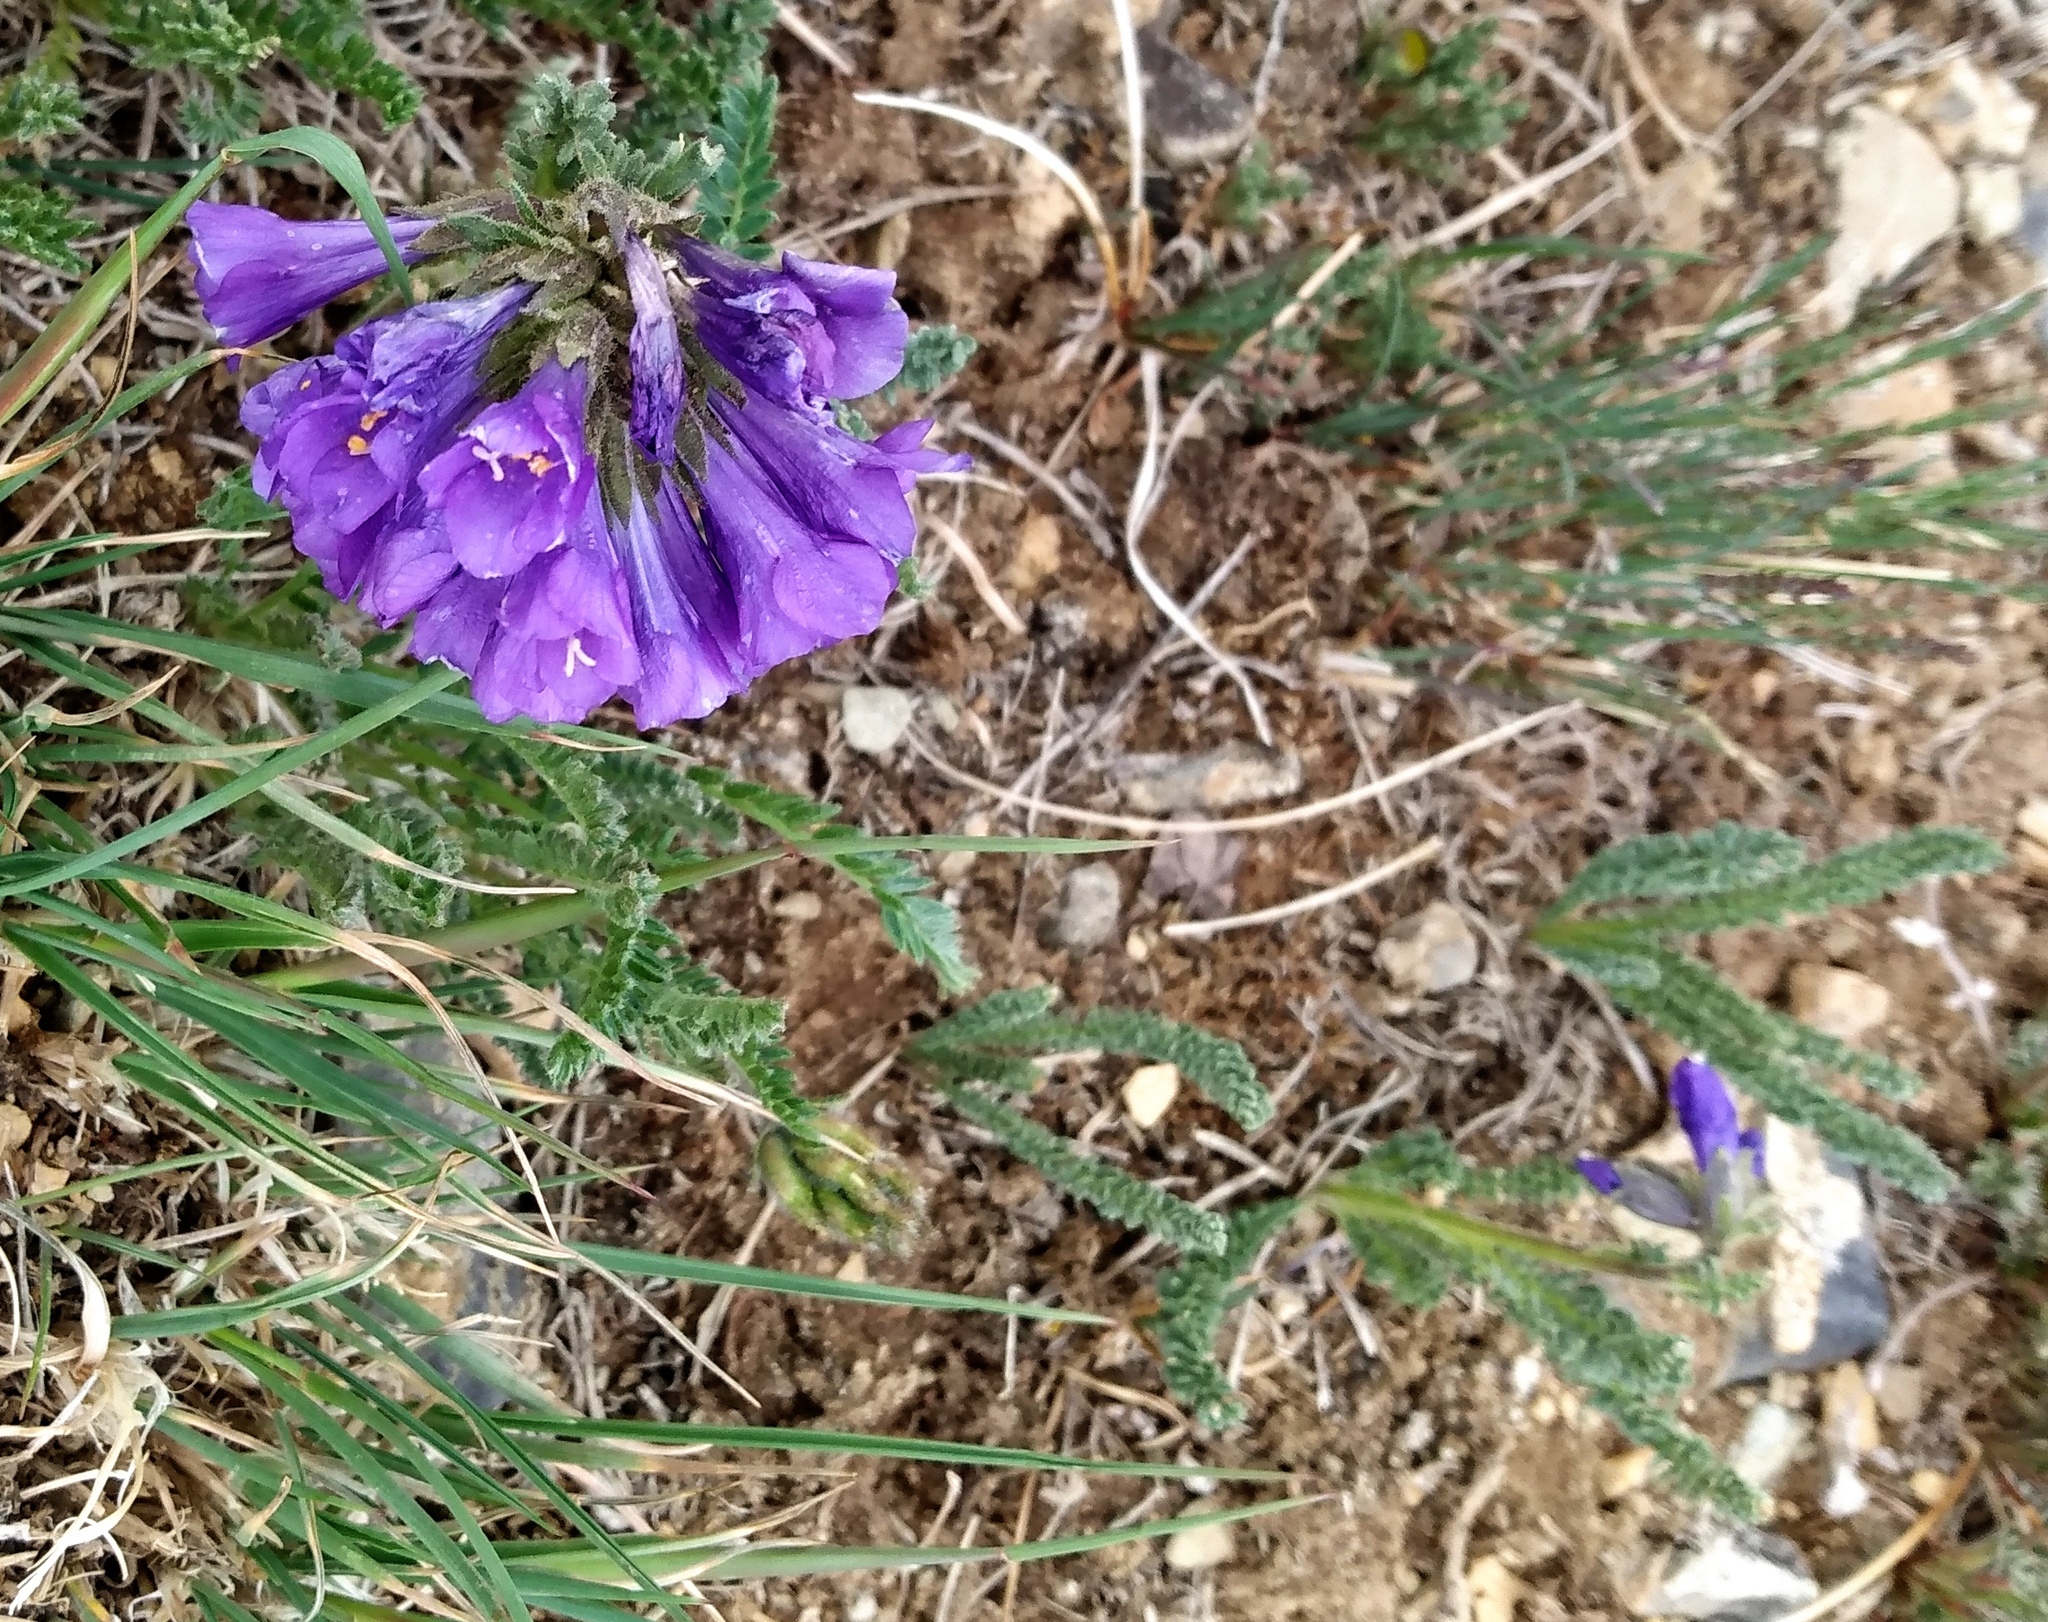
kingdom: Plantae
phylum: Tracheophyta
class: Magnoliopsida
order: Ericales
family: Polemoniaceae
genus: Polemonium
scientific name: Polemonium viscosum
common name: Skunk jacob's-ladder
